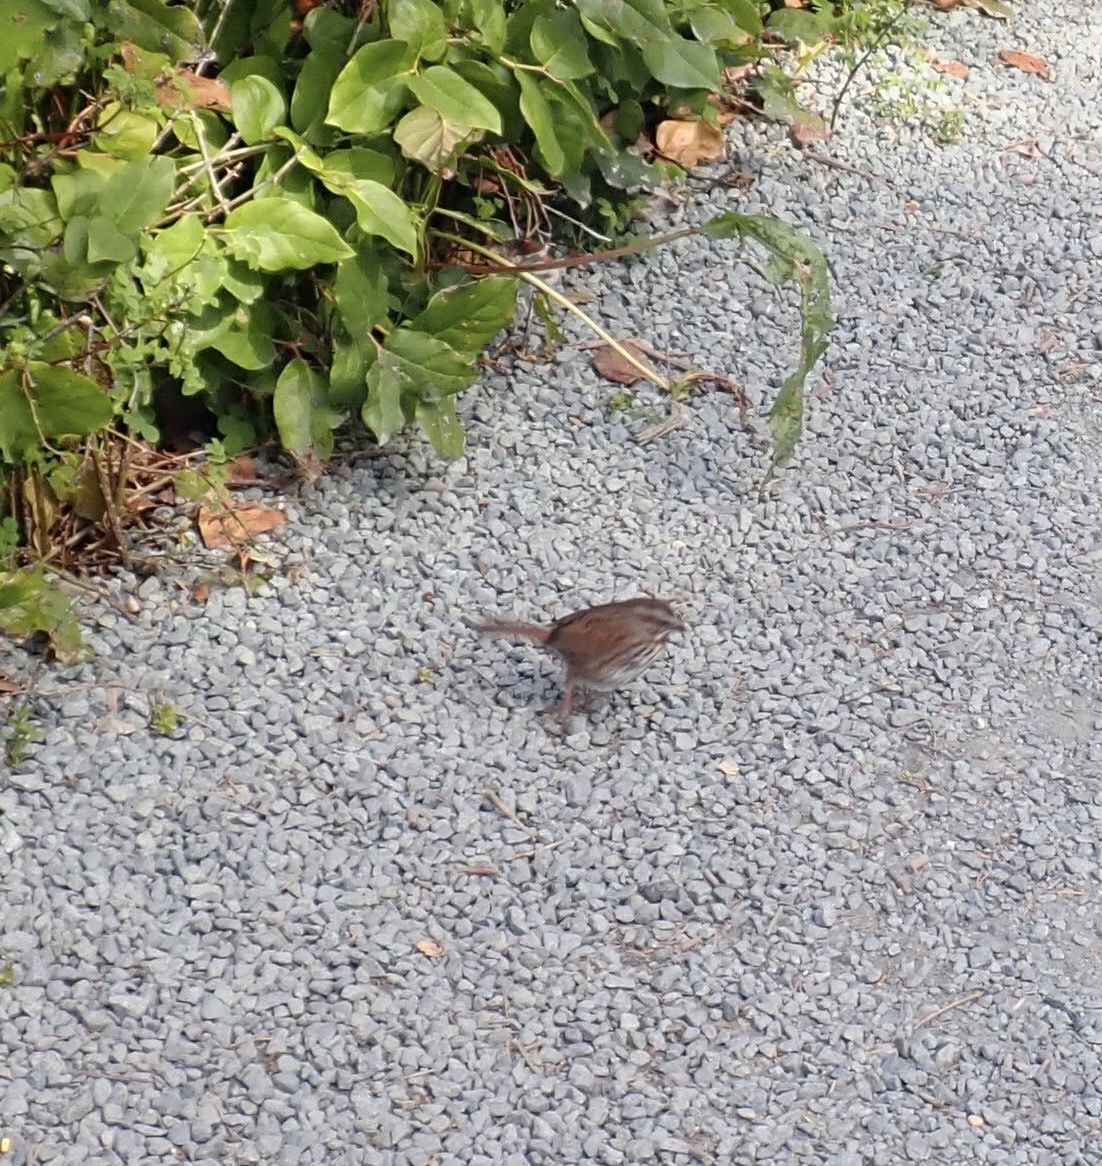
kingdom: Animalia
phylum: Chordata
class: Aves
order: Passeriformes
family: Passerellidae
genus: Melospiza
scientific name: Melospiza melodia
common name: Song sparrow
